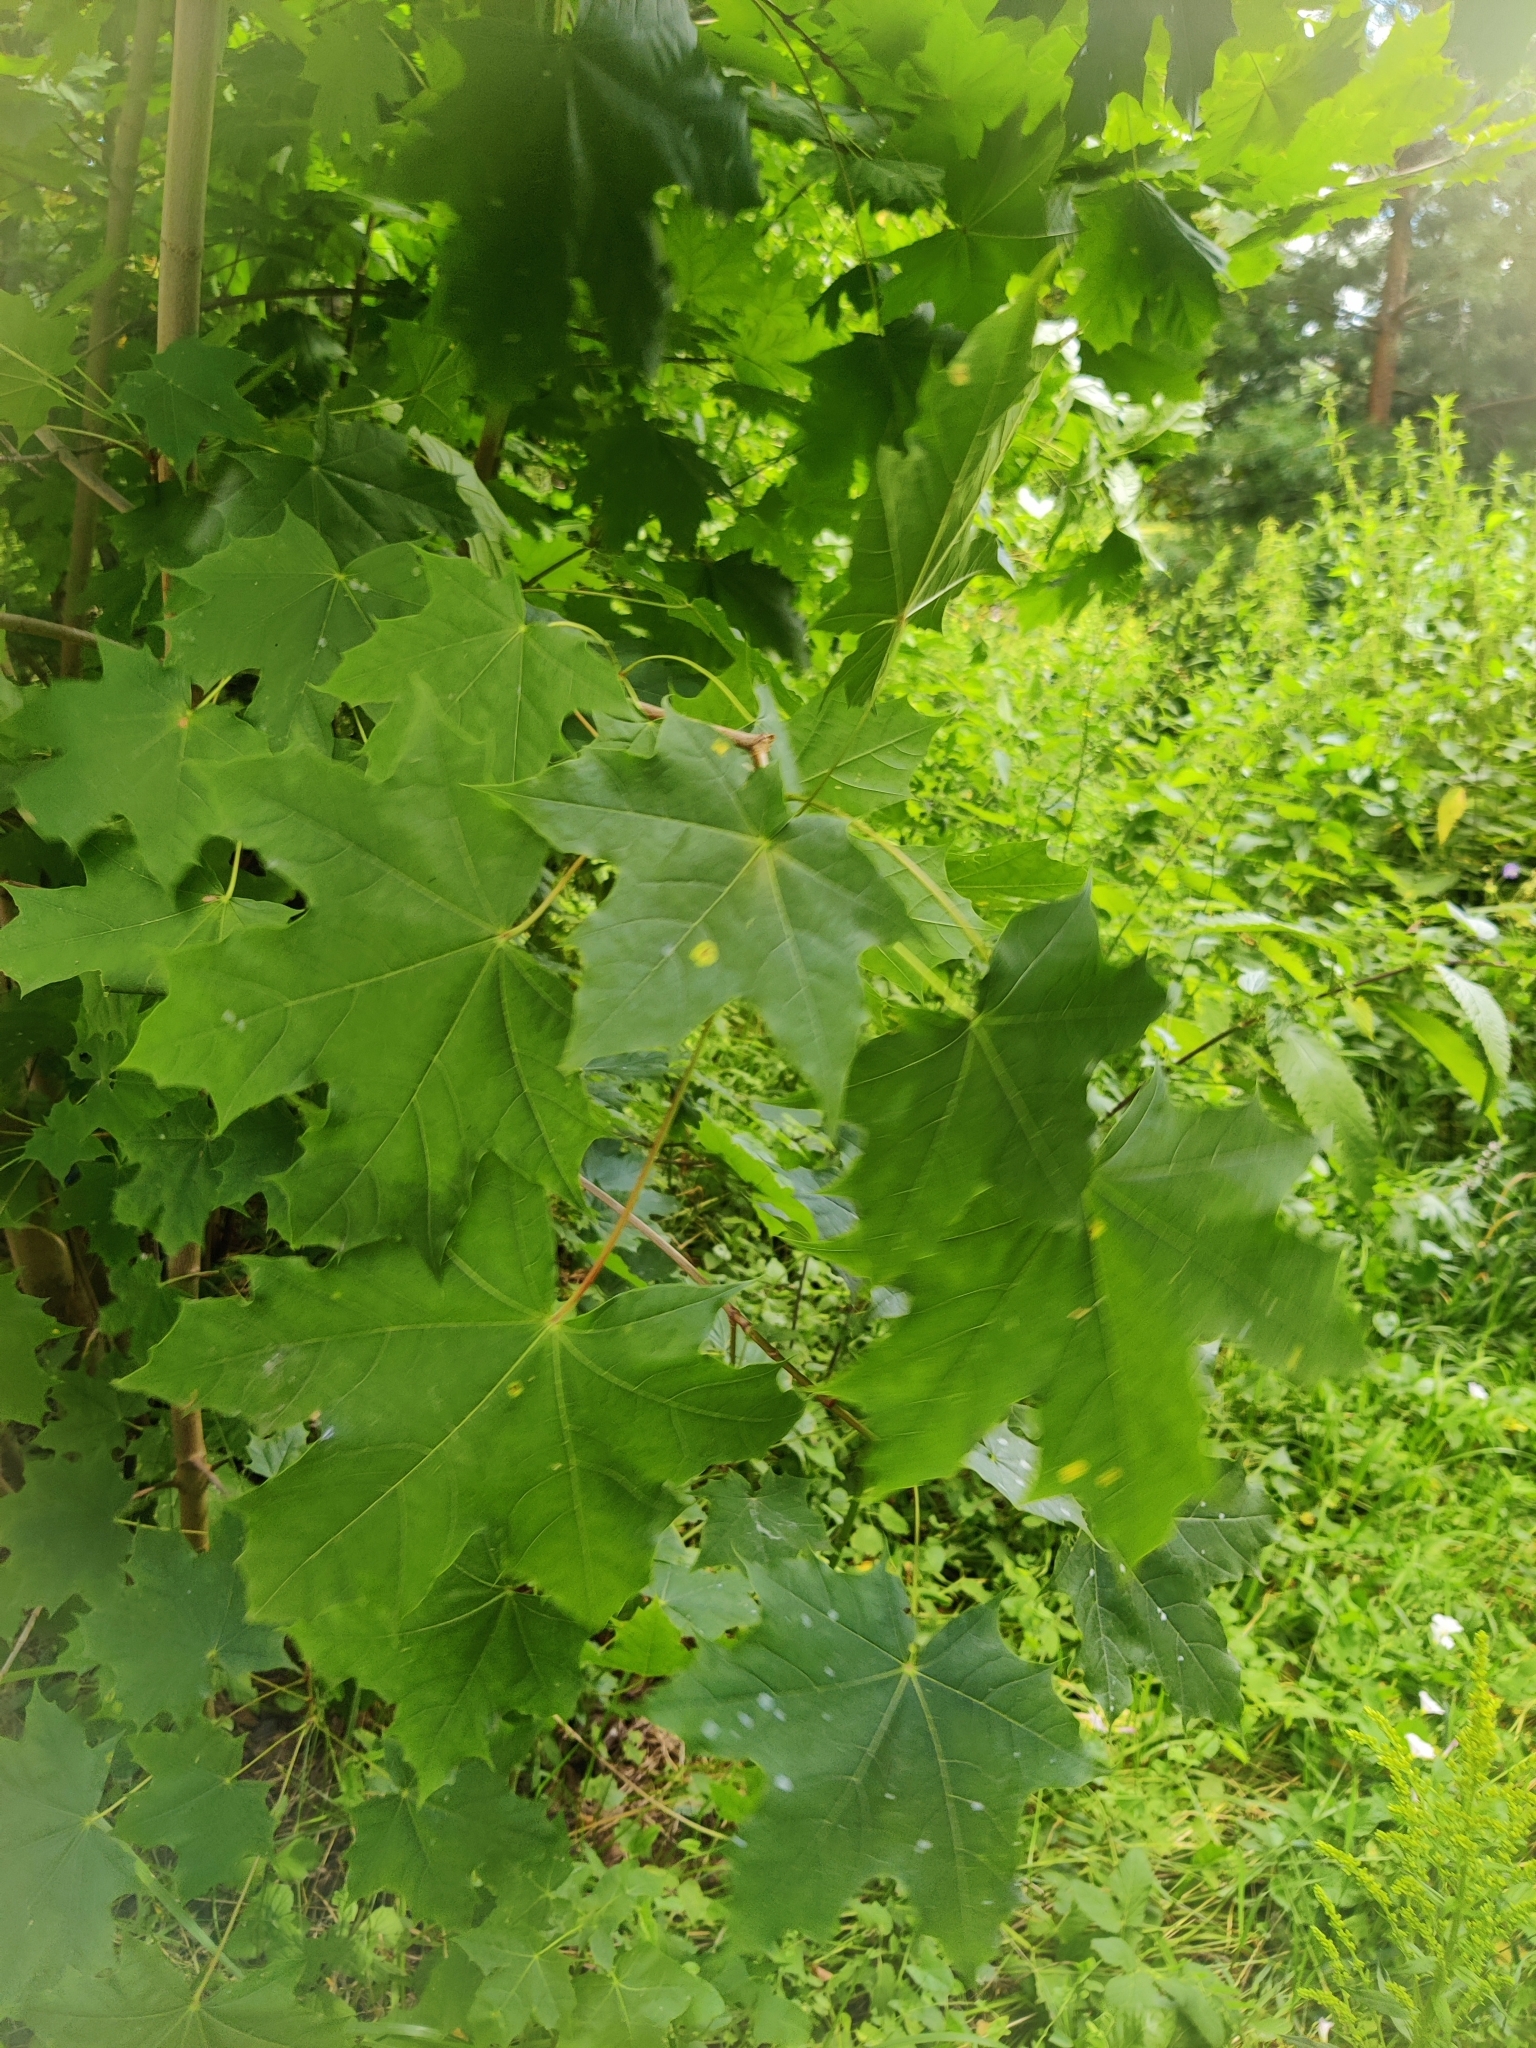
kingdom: Plantae
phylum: Tracheophyta
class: Magnoliopsida
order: Sapindales
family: Sapindaceae
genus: Acer
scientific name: Acer platanoides
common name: Norway maple
